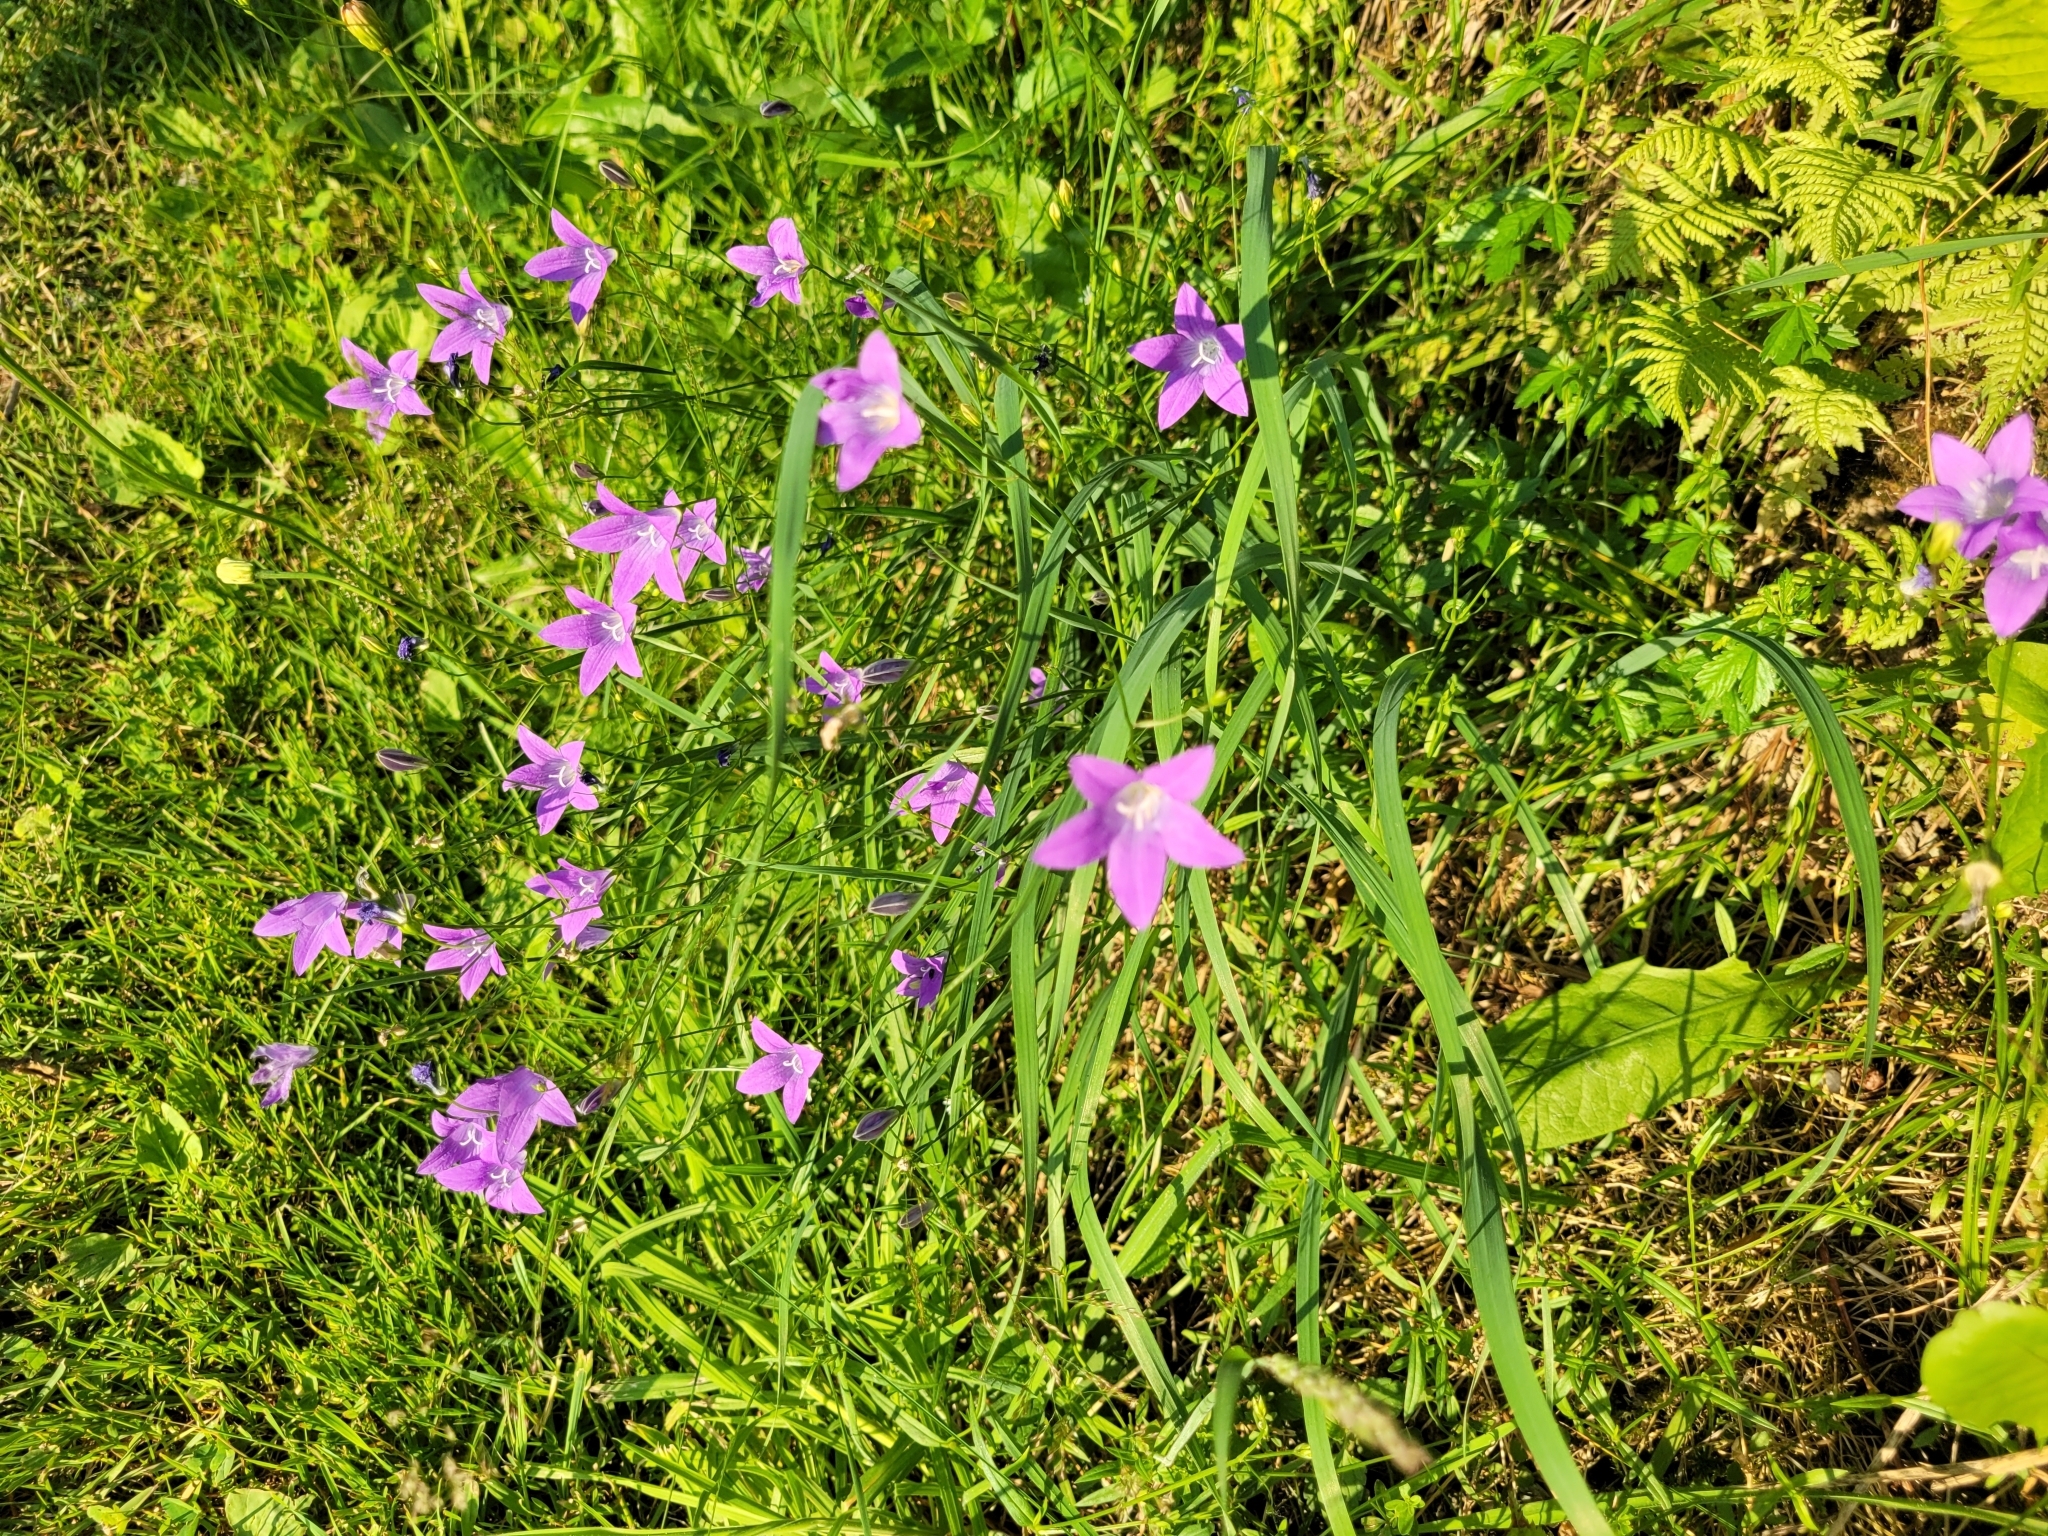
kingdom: Plantae
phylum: Tracheophyta
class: Magnoliopsida
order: Asterales
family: Campanulaceae
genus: Campanula
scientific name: Campanula patula
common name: Spreading bellflower
